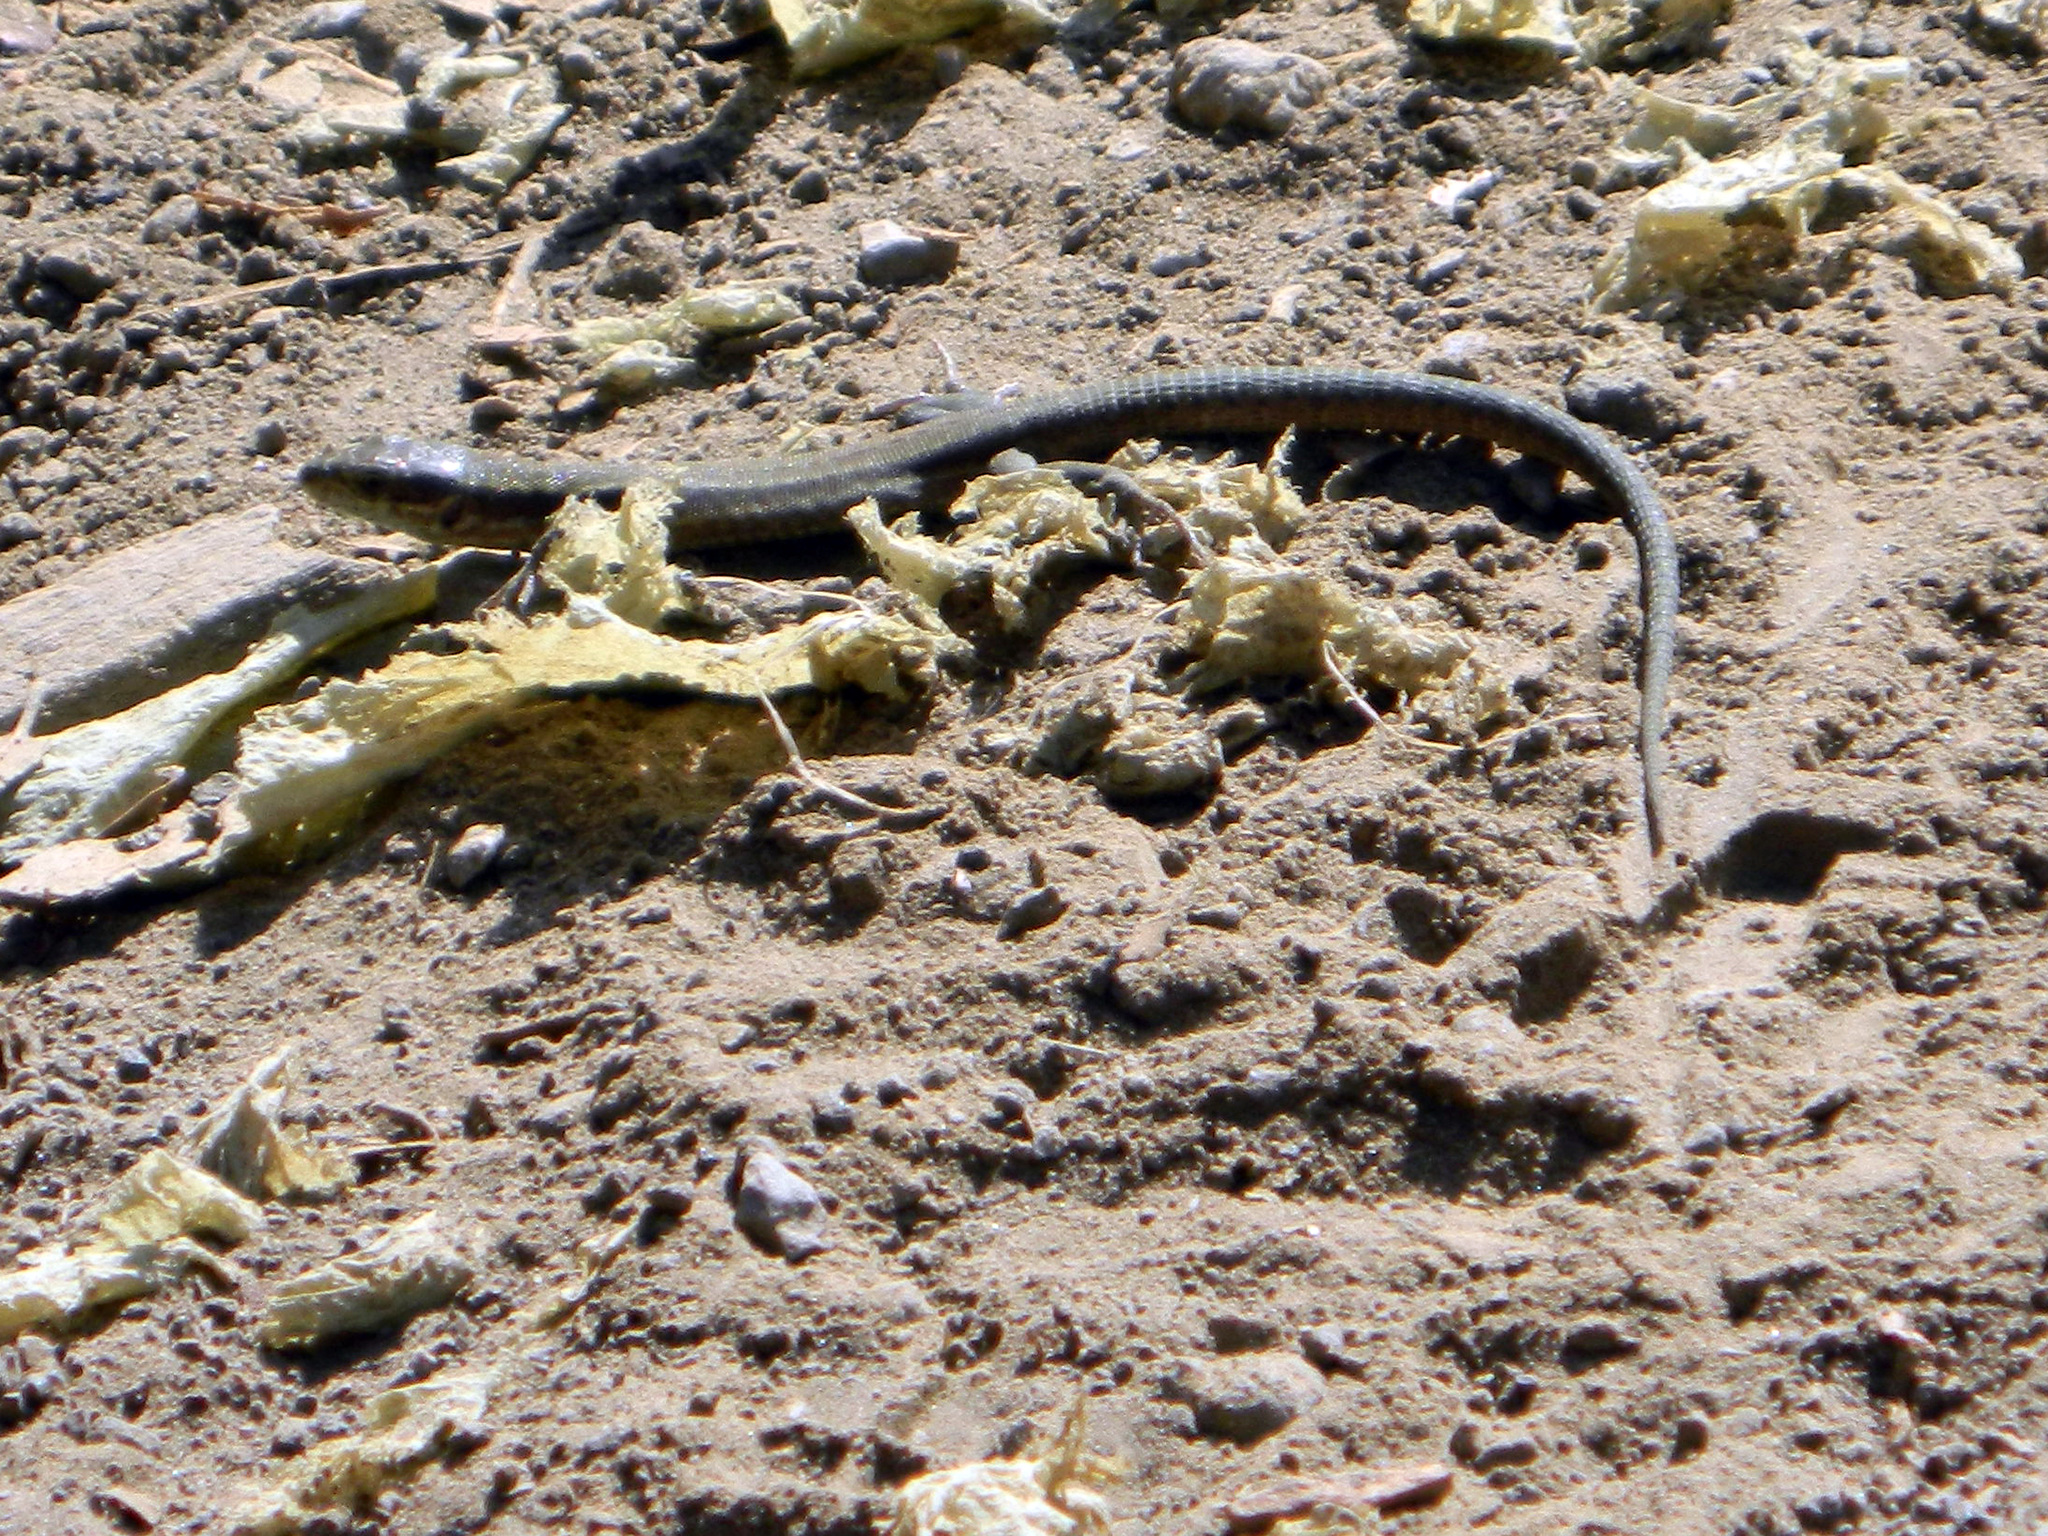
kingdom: Animalia
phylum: Chordata
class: Squamata
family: Lacertidae
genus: Podarcis
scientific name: Podarcis muralis
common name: Common wall lizard
